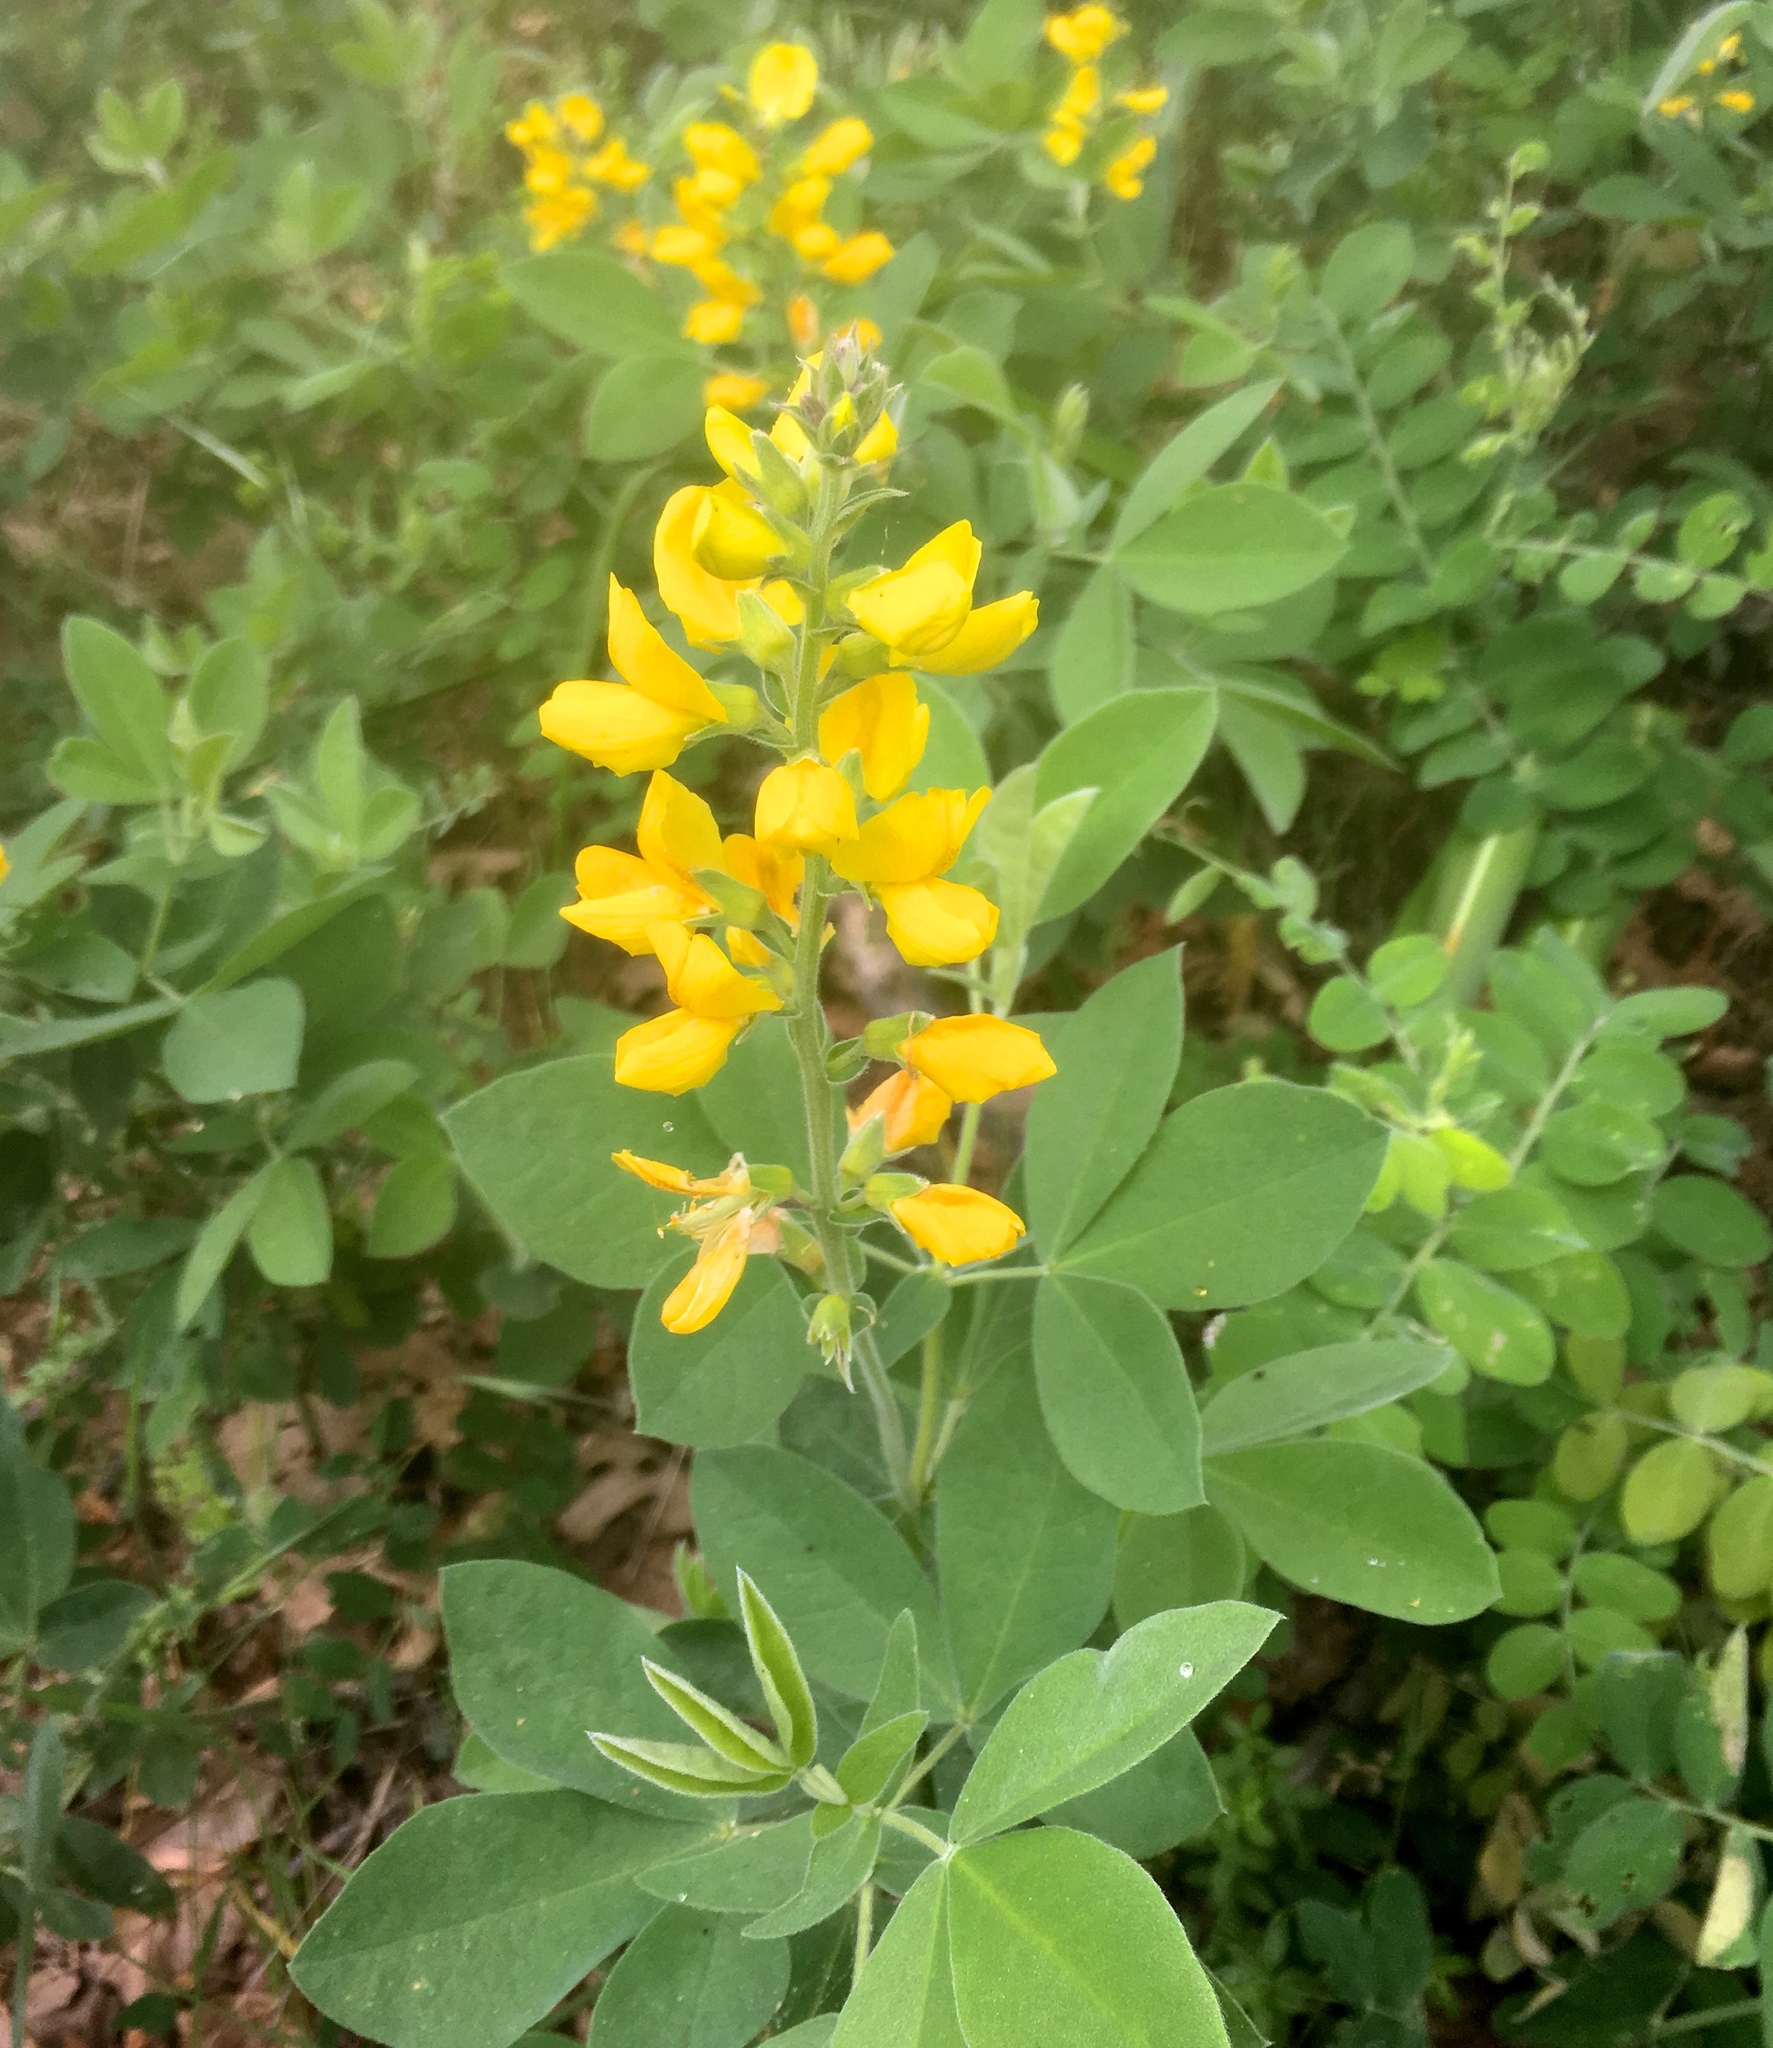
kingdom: Plantae
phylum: Tracheophyta
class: Magnoliopsida
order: Fabales
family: Fabaceae
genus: Thermopsis
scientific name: Thermopsis californica
